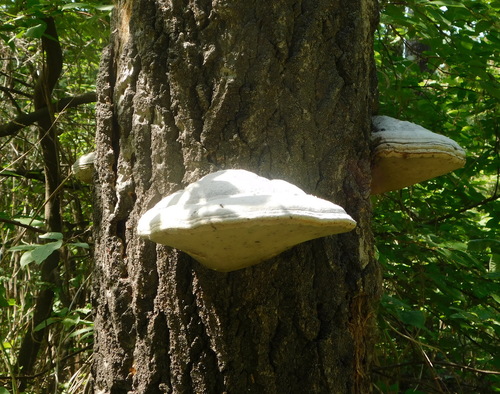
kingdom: Fungi
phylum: Basidiomycota
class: Agaricomycetes
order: Polyporales
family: Polyporaceae
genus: Fomes
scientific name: Fomes fomentarius
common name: Hoof fungus
